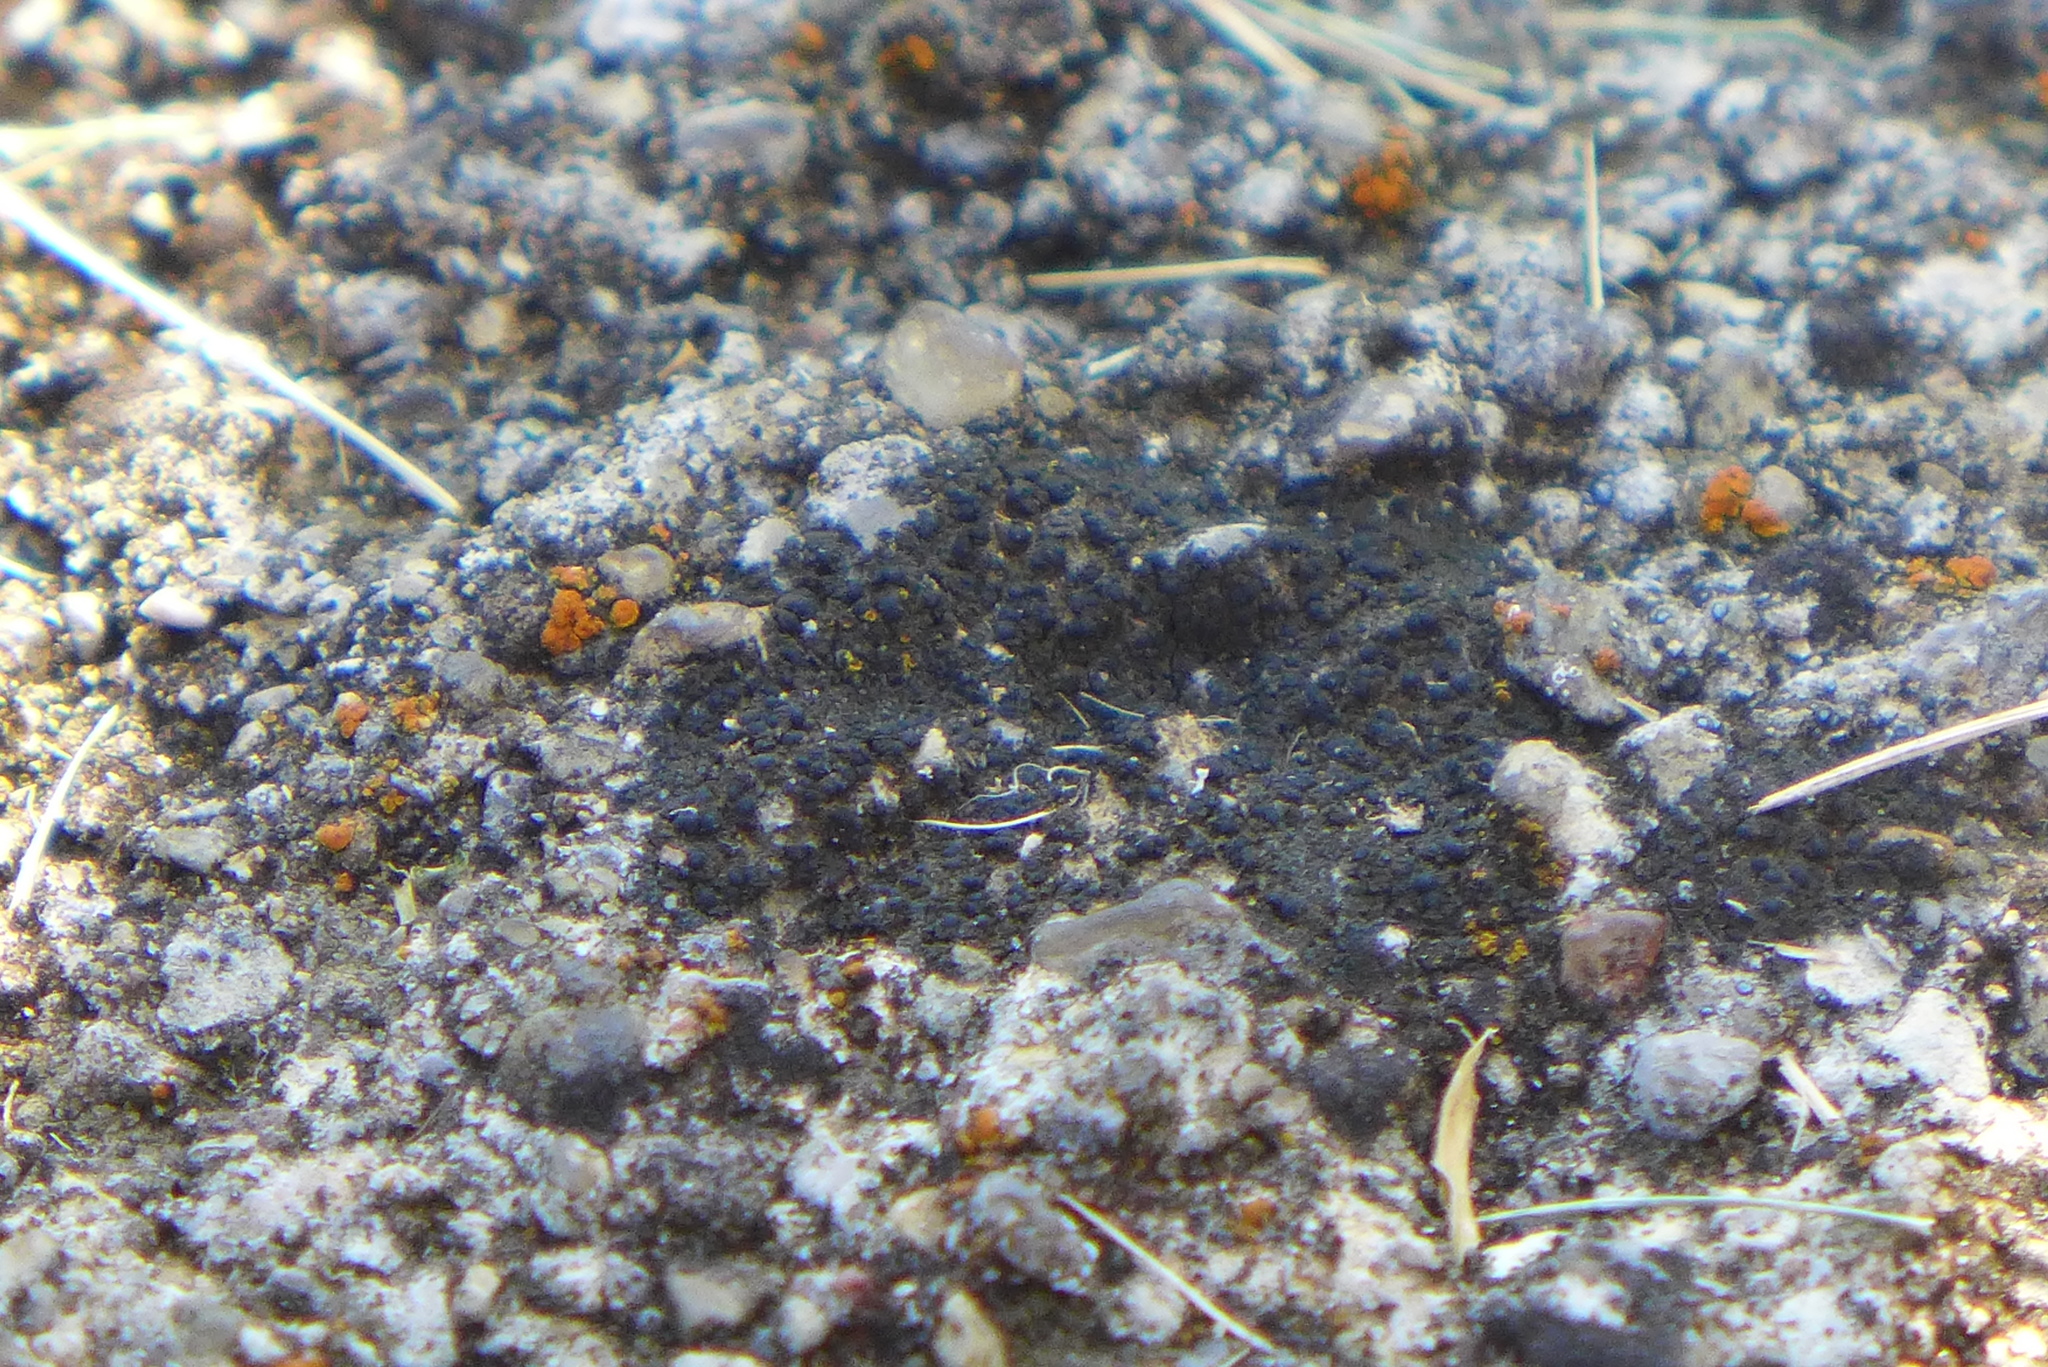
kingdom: Fungi
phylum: Ascomycota
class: Lecanoromycetes
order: Peltigerales
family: Placynthiaceae
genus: Placynthium
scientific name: Placynthium nigrum
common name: Blackthread lichen
